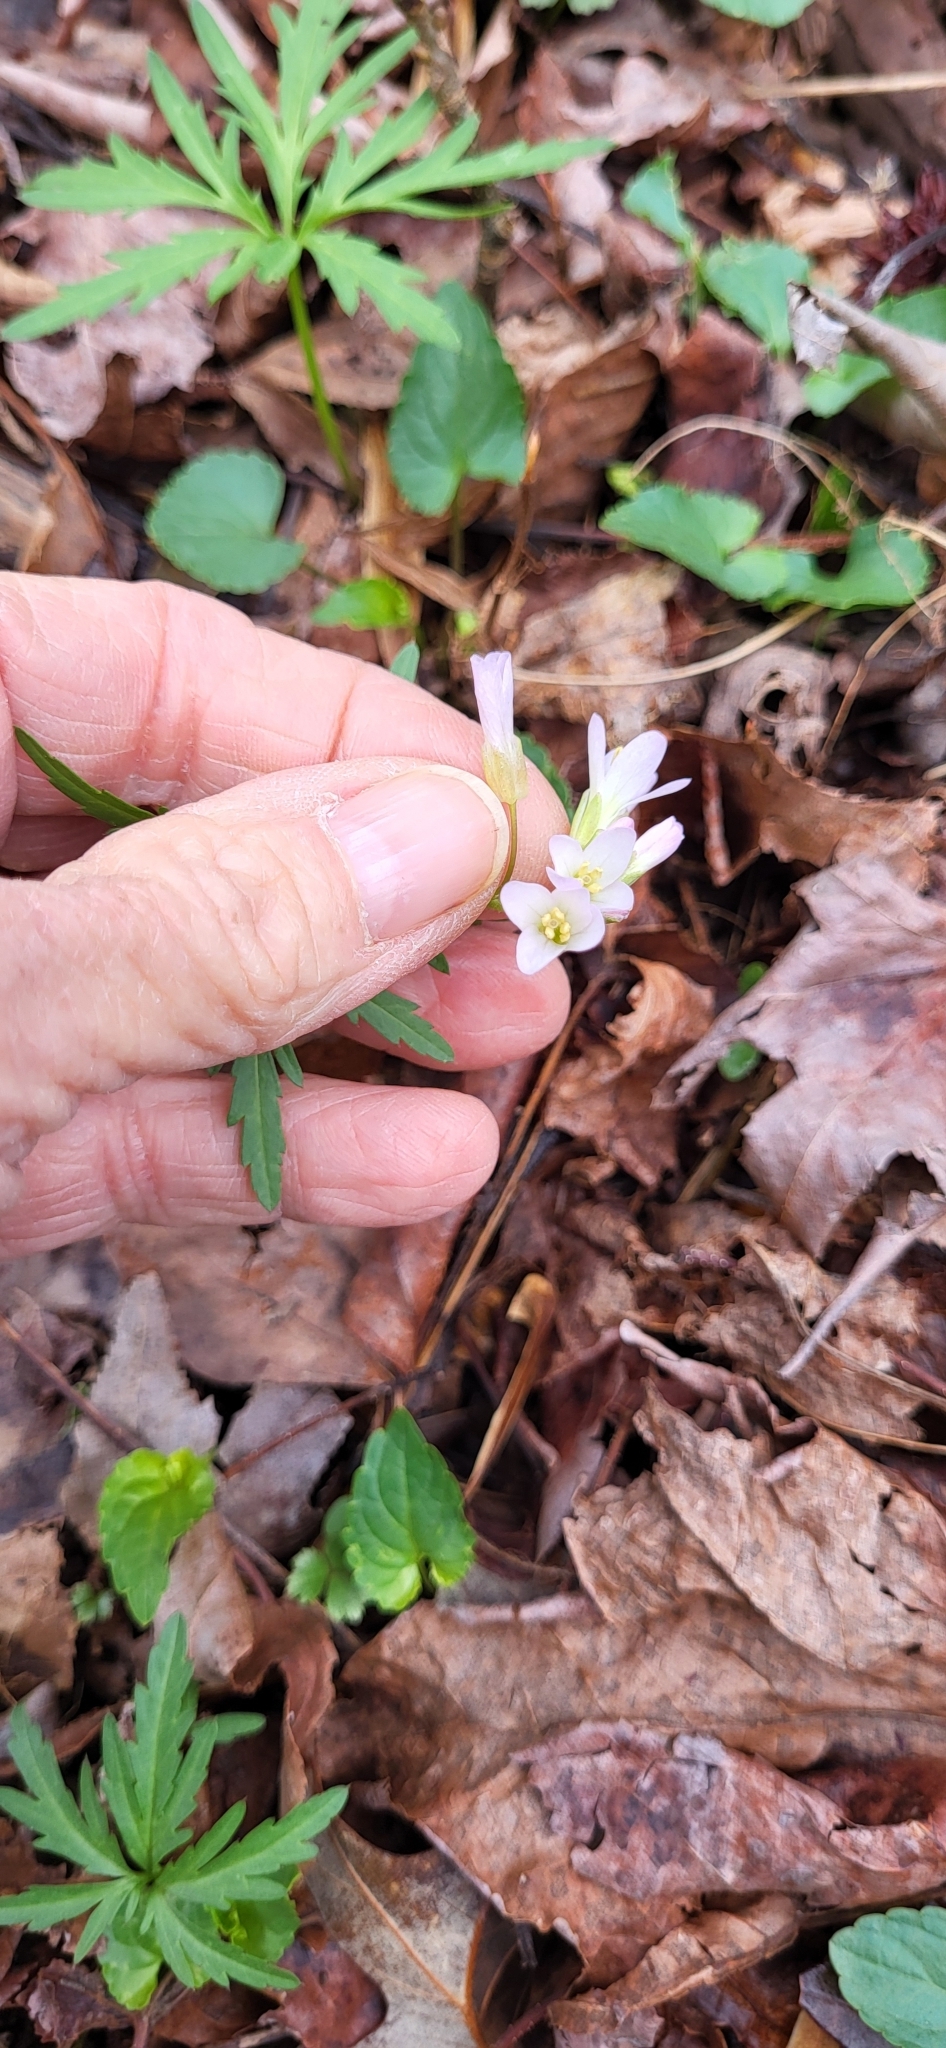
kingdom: Plantae
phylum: Tracheophyta
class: Magnoliopsida
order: Brassicales
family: Brassicaceae
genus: Cardamine
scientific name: Cardamine concatenata
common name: Cut-leaf toothcup
